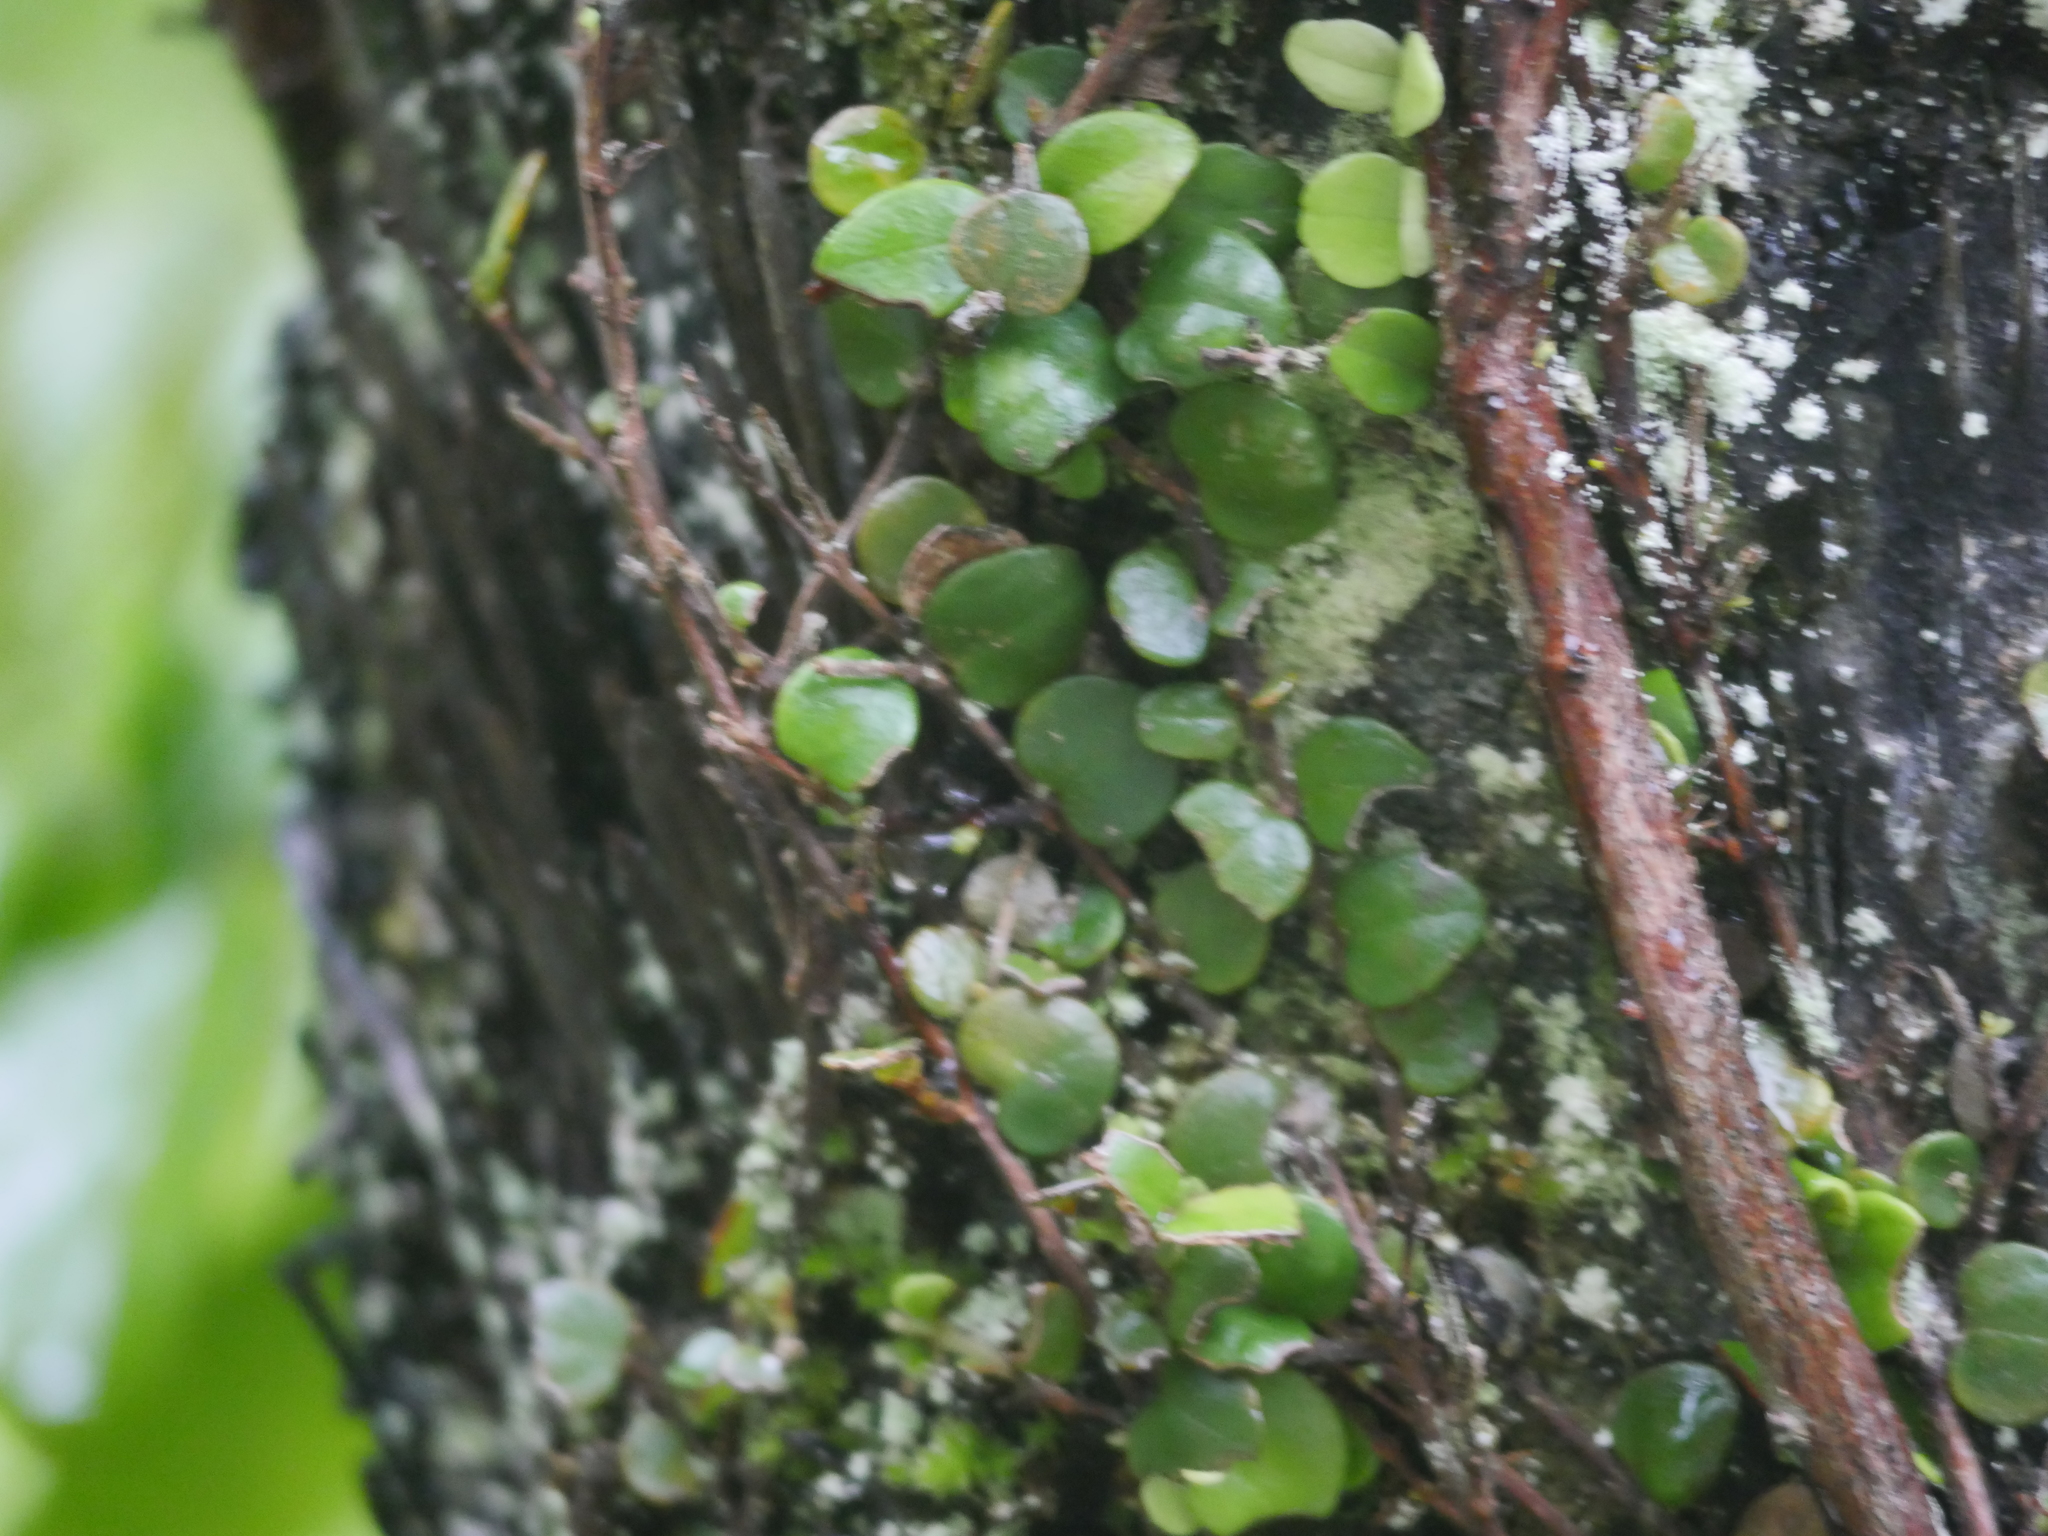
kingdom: Plantae
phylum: Tracheophyta
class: Magnoliopsida
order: Myrtales
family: Myrtaceae
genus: Metrosideros
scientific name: Metrosideros perforata
